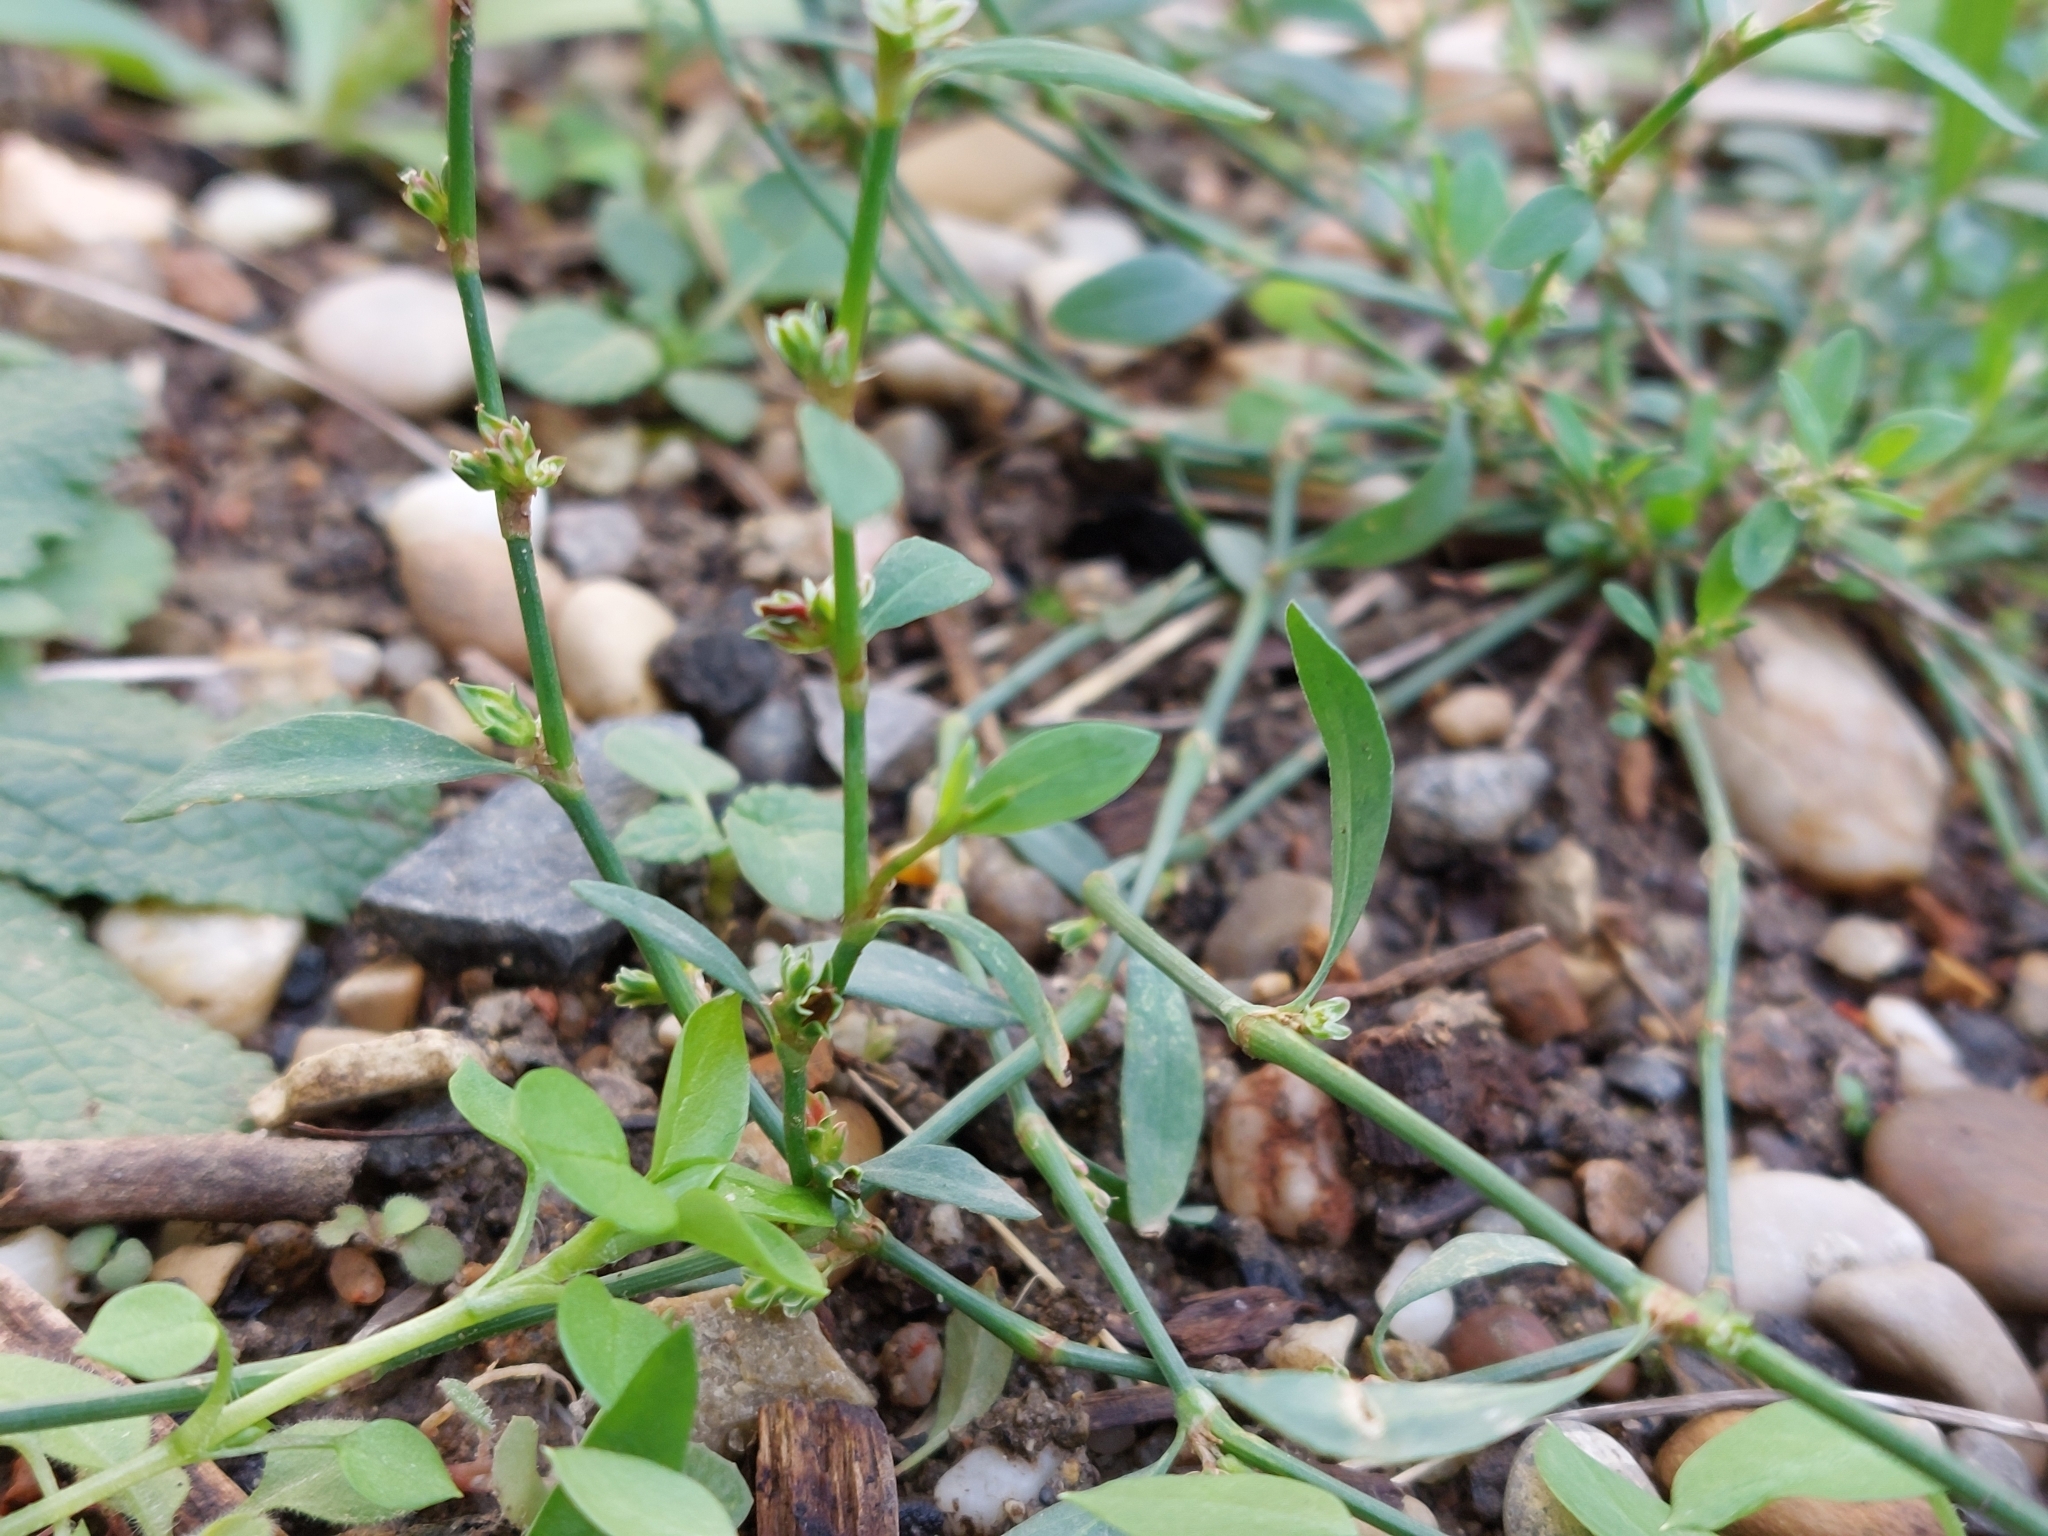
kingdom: Plantae
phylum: Tracheophyta
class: Magnoliopsida
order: Caryophyllales
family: Polygonaceae
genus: Polygonum
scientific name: Polygonum aviculare
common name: Prostrate knotweed
